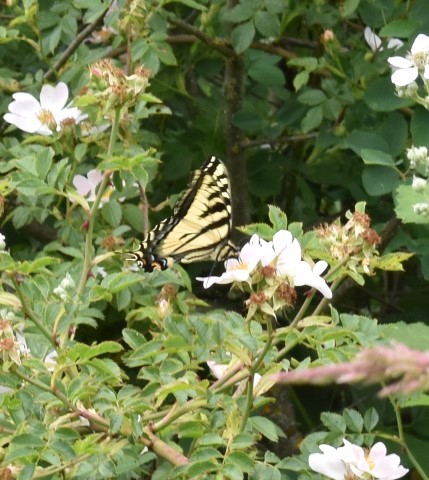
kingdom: Animalia
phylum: Arthropoda
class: Insecta
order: Lepidoptera
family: Papilionidae
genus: Papilio
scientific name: Papilio rutulus
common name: Western tiger swallowtail
